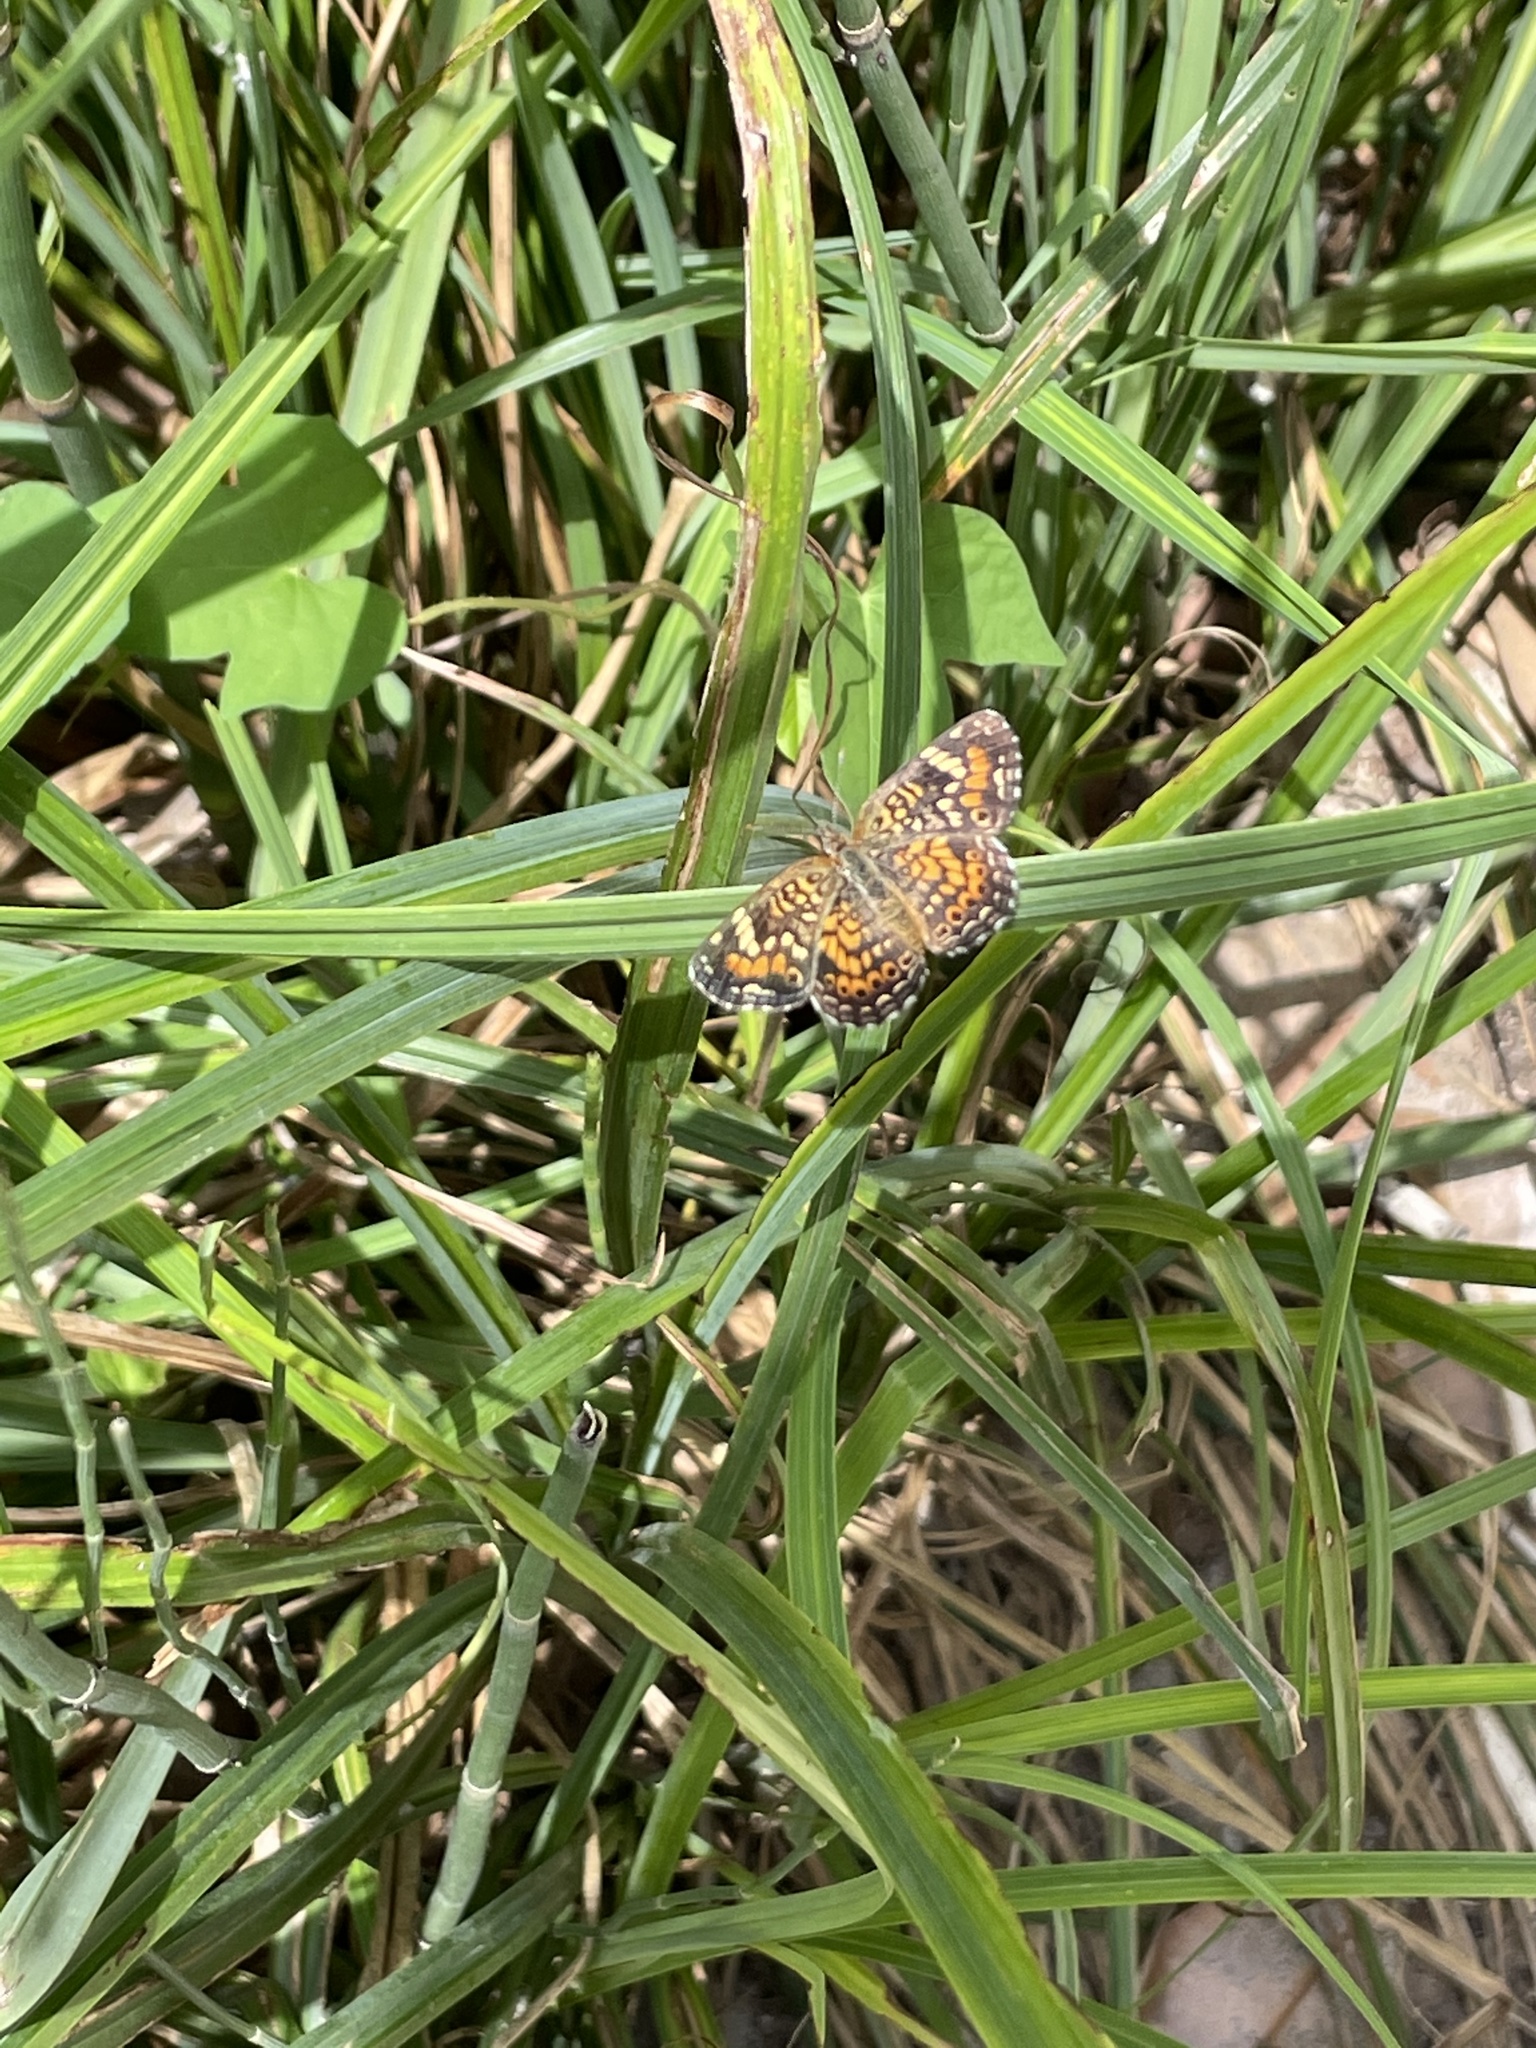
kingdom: Animalia
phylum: Arthropoda
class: Insecta
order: Lepidoptera
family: Nymphalidae
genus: Phyciodes
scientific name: Phyciodes phaon
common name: Phaon crescent
